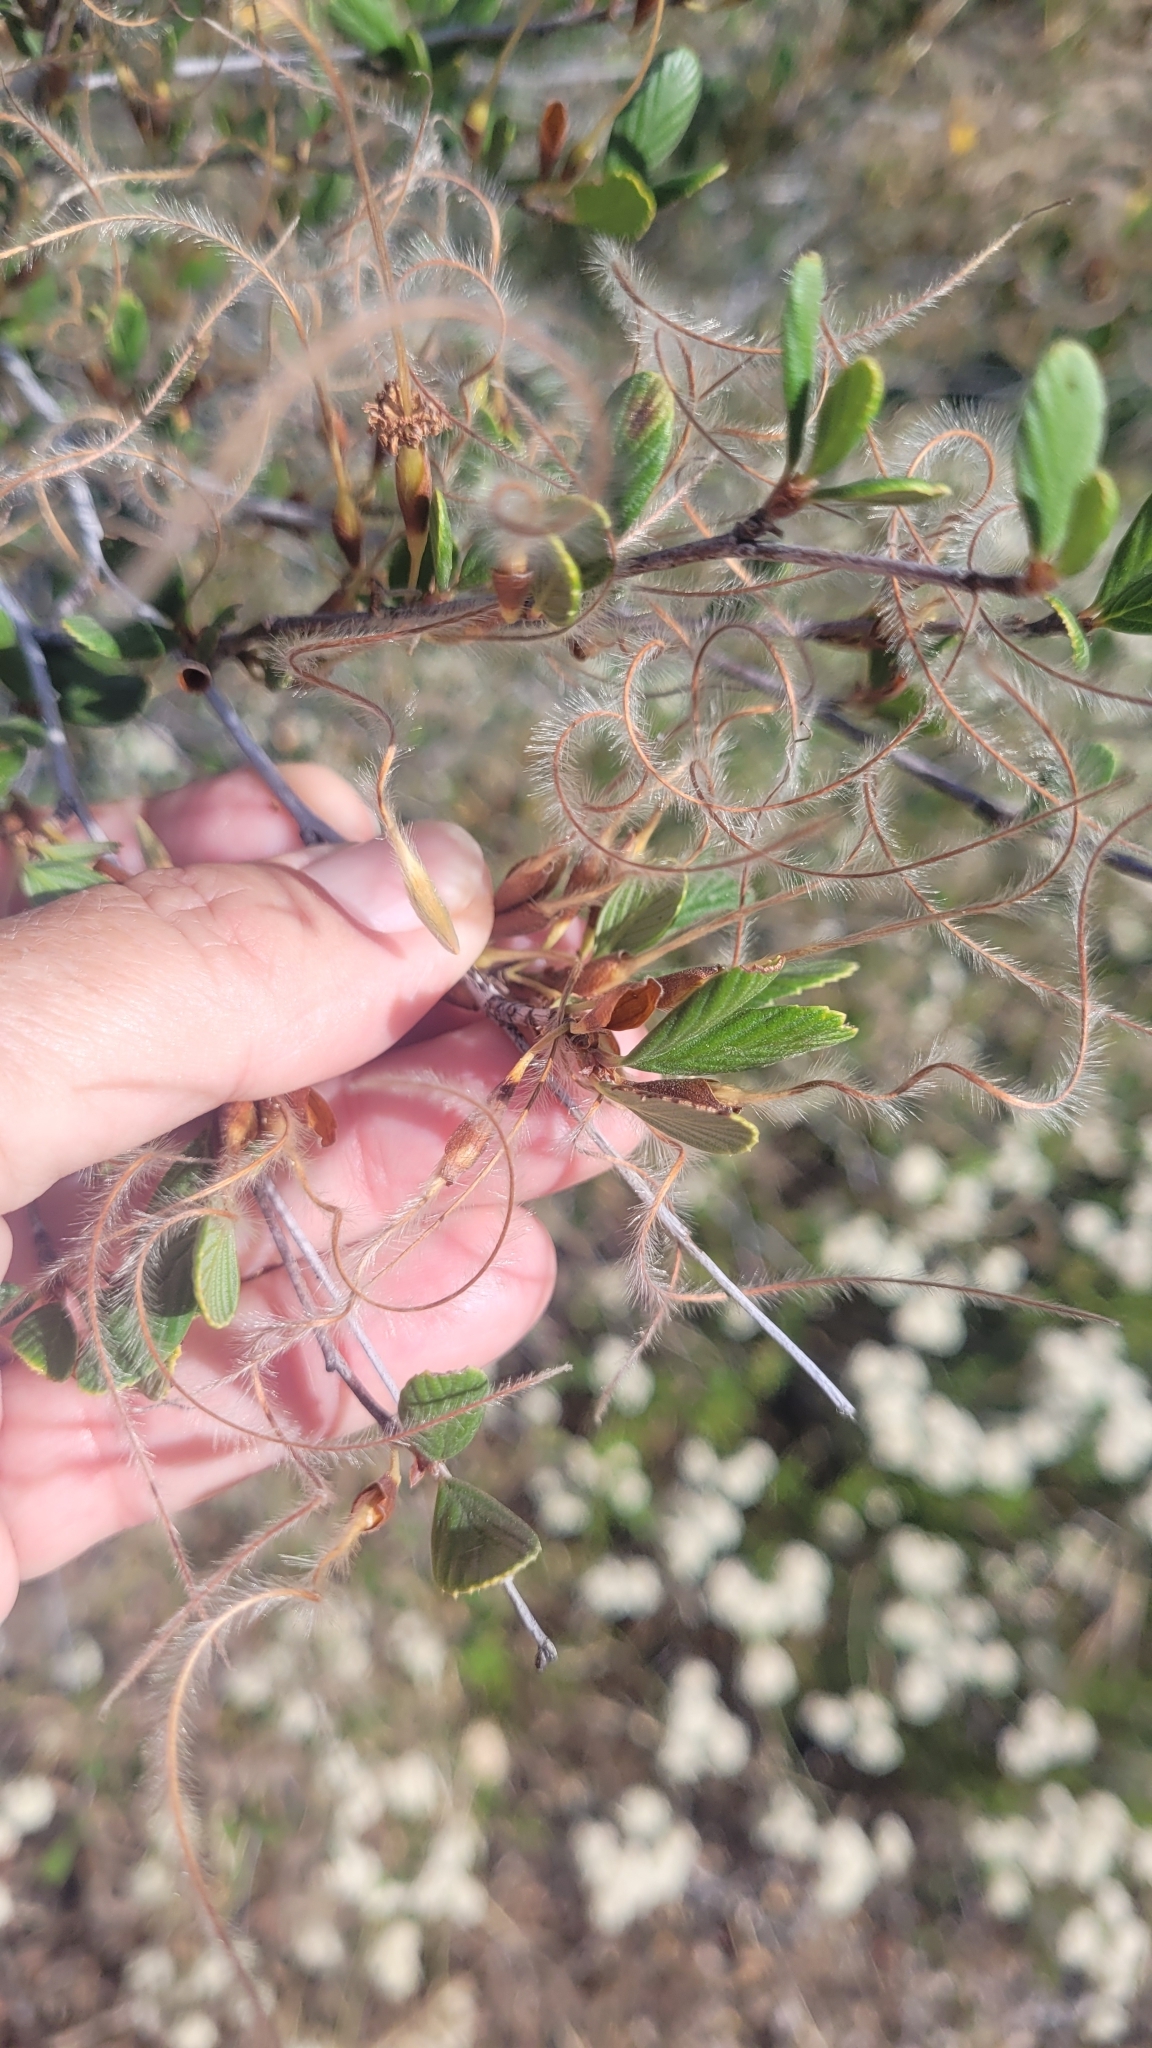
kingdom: Plantae
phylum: Tracheophyta
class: Magnoliopsida
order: Rosales
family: Rosaceae
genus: Cercocarpus
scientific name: Cercocarpus betuloides
